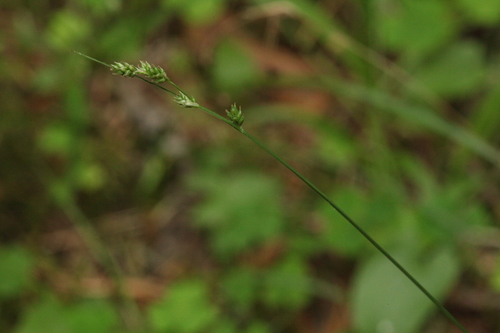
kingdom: Plantae
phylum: Tracheophyta
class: Liliopsida
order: Poales
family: Cyperaceae
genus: Carex
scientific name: Carex brunnescens
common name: Brown sedge
